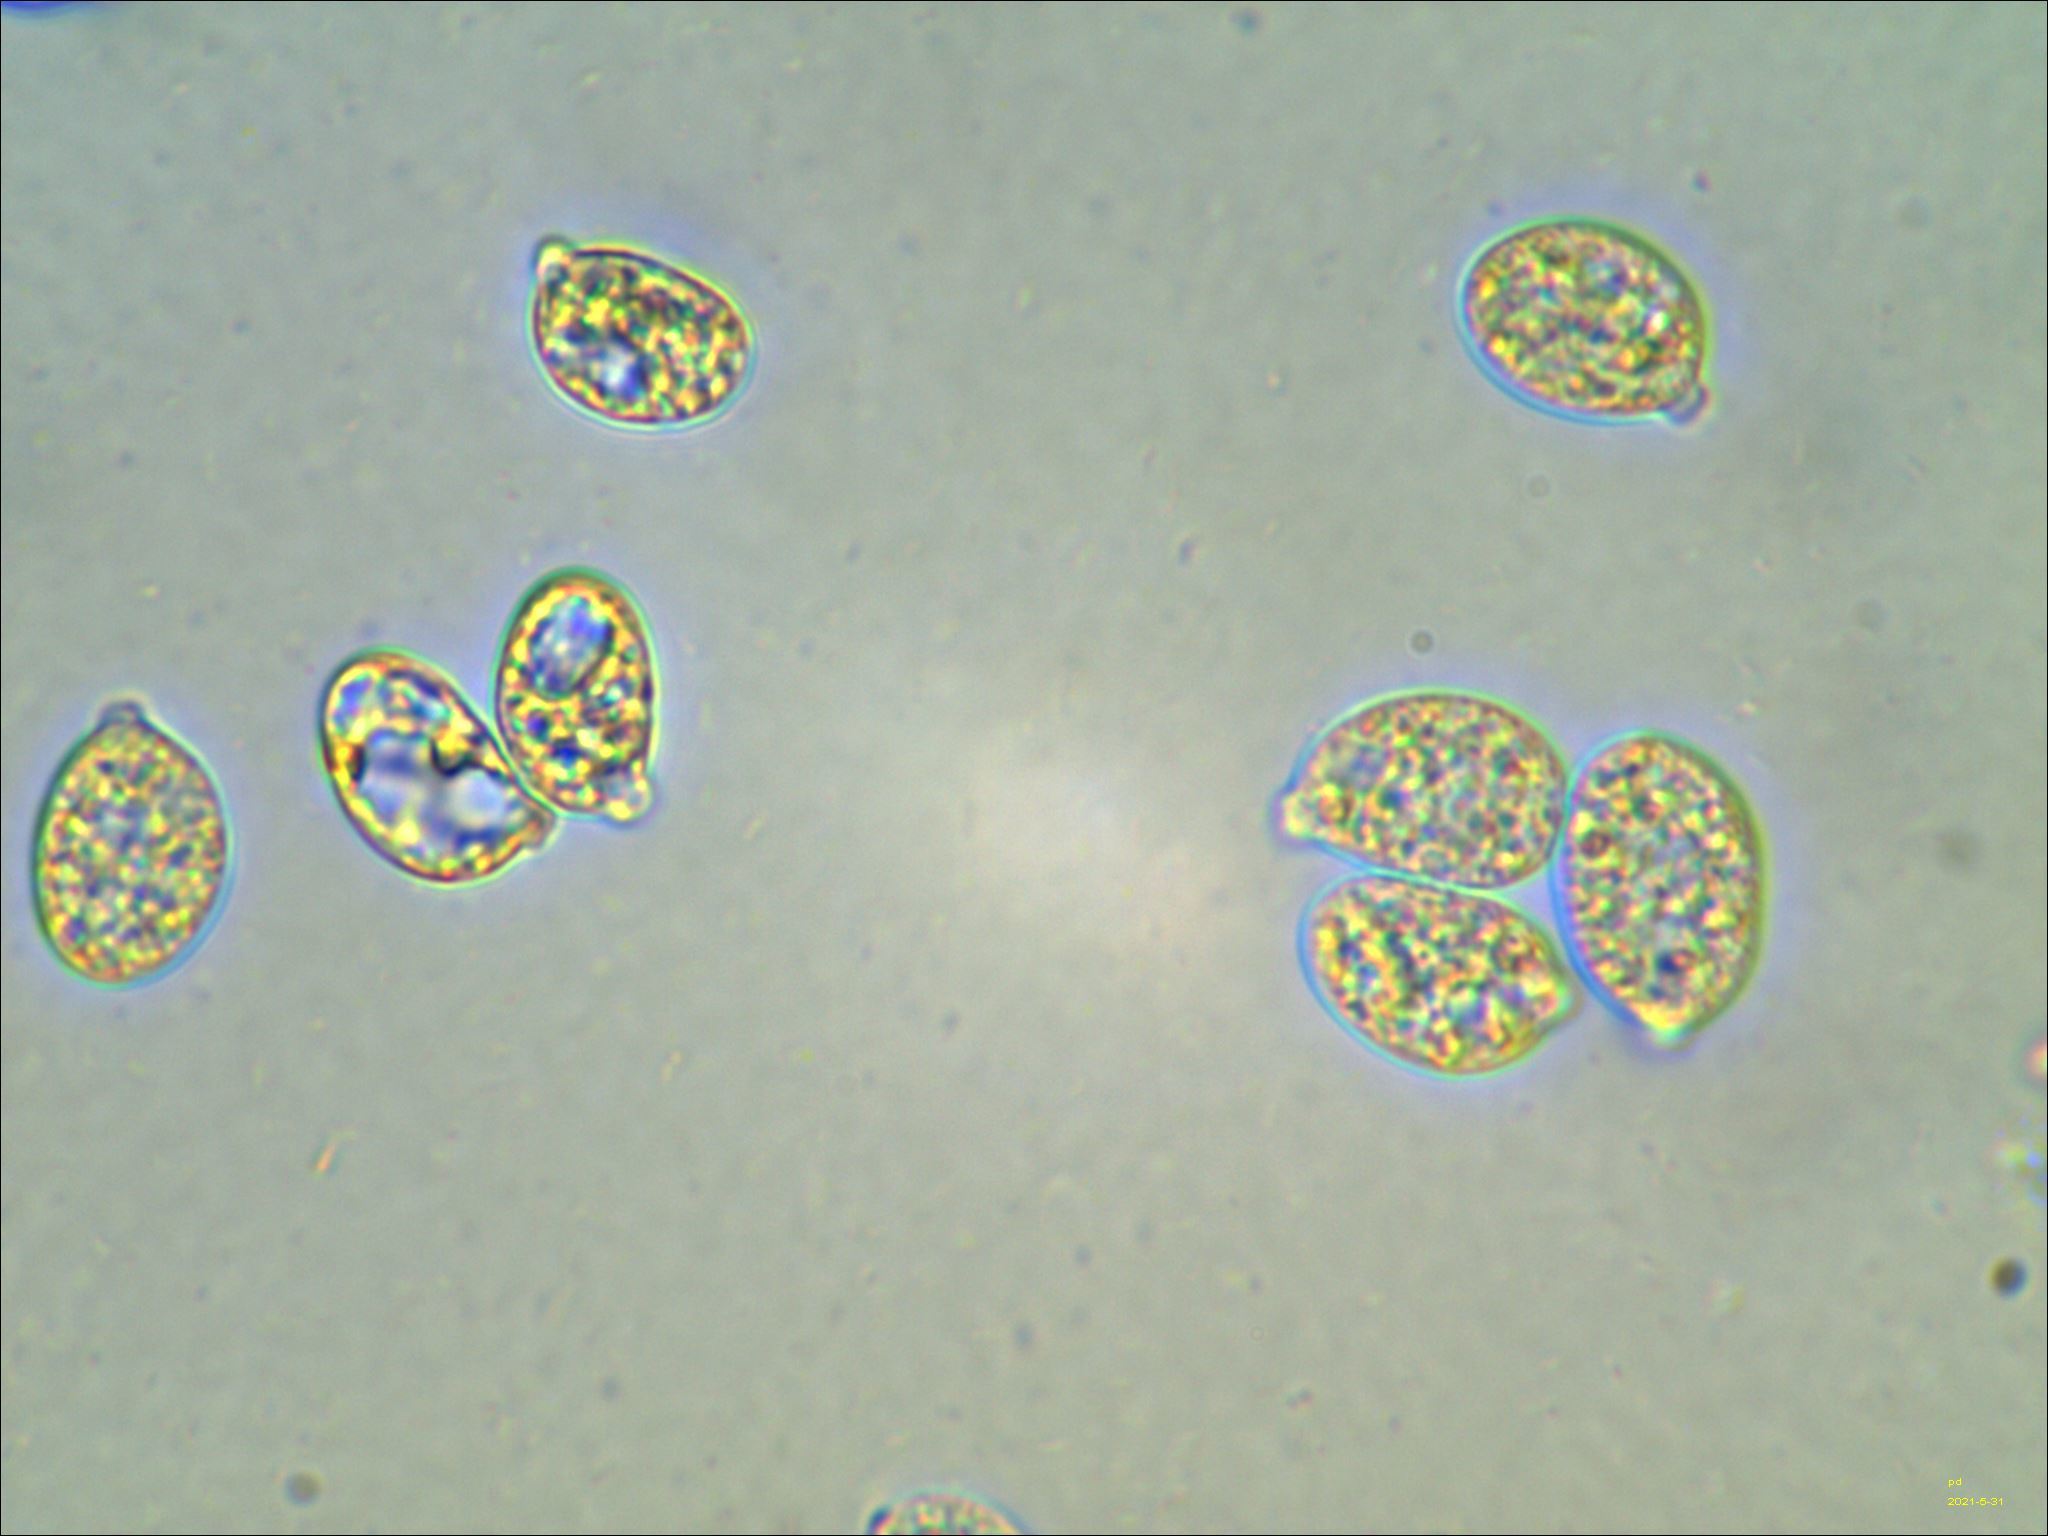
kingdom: Fungi
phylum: Basidiomycota
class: Tremellomycetes
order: Tremellales
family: Tremellaceae
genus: Tremella
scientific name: Tremella mesenterica
